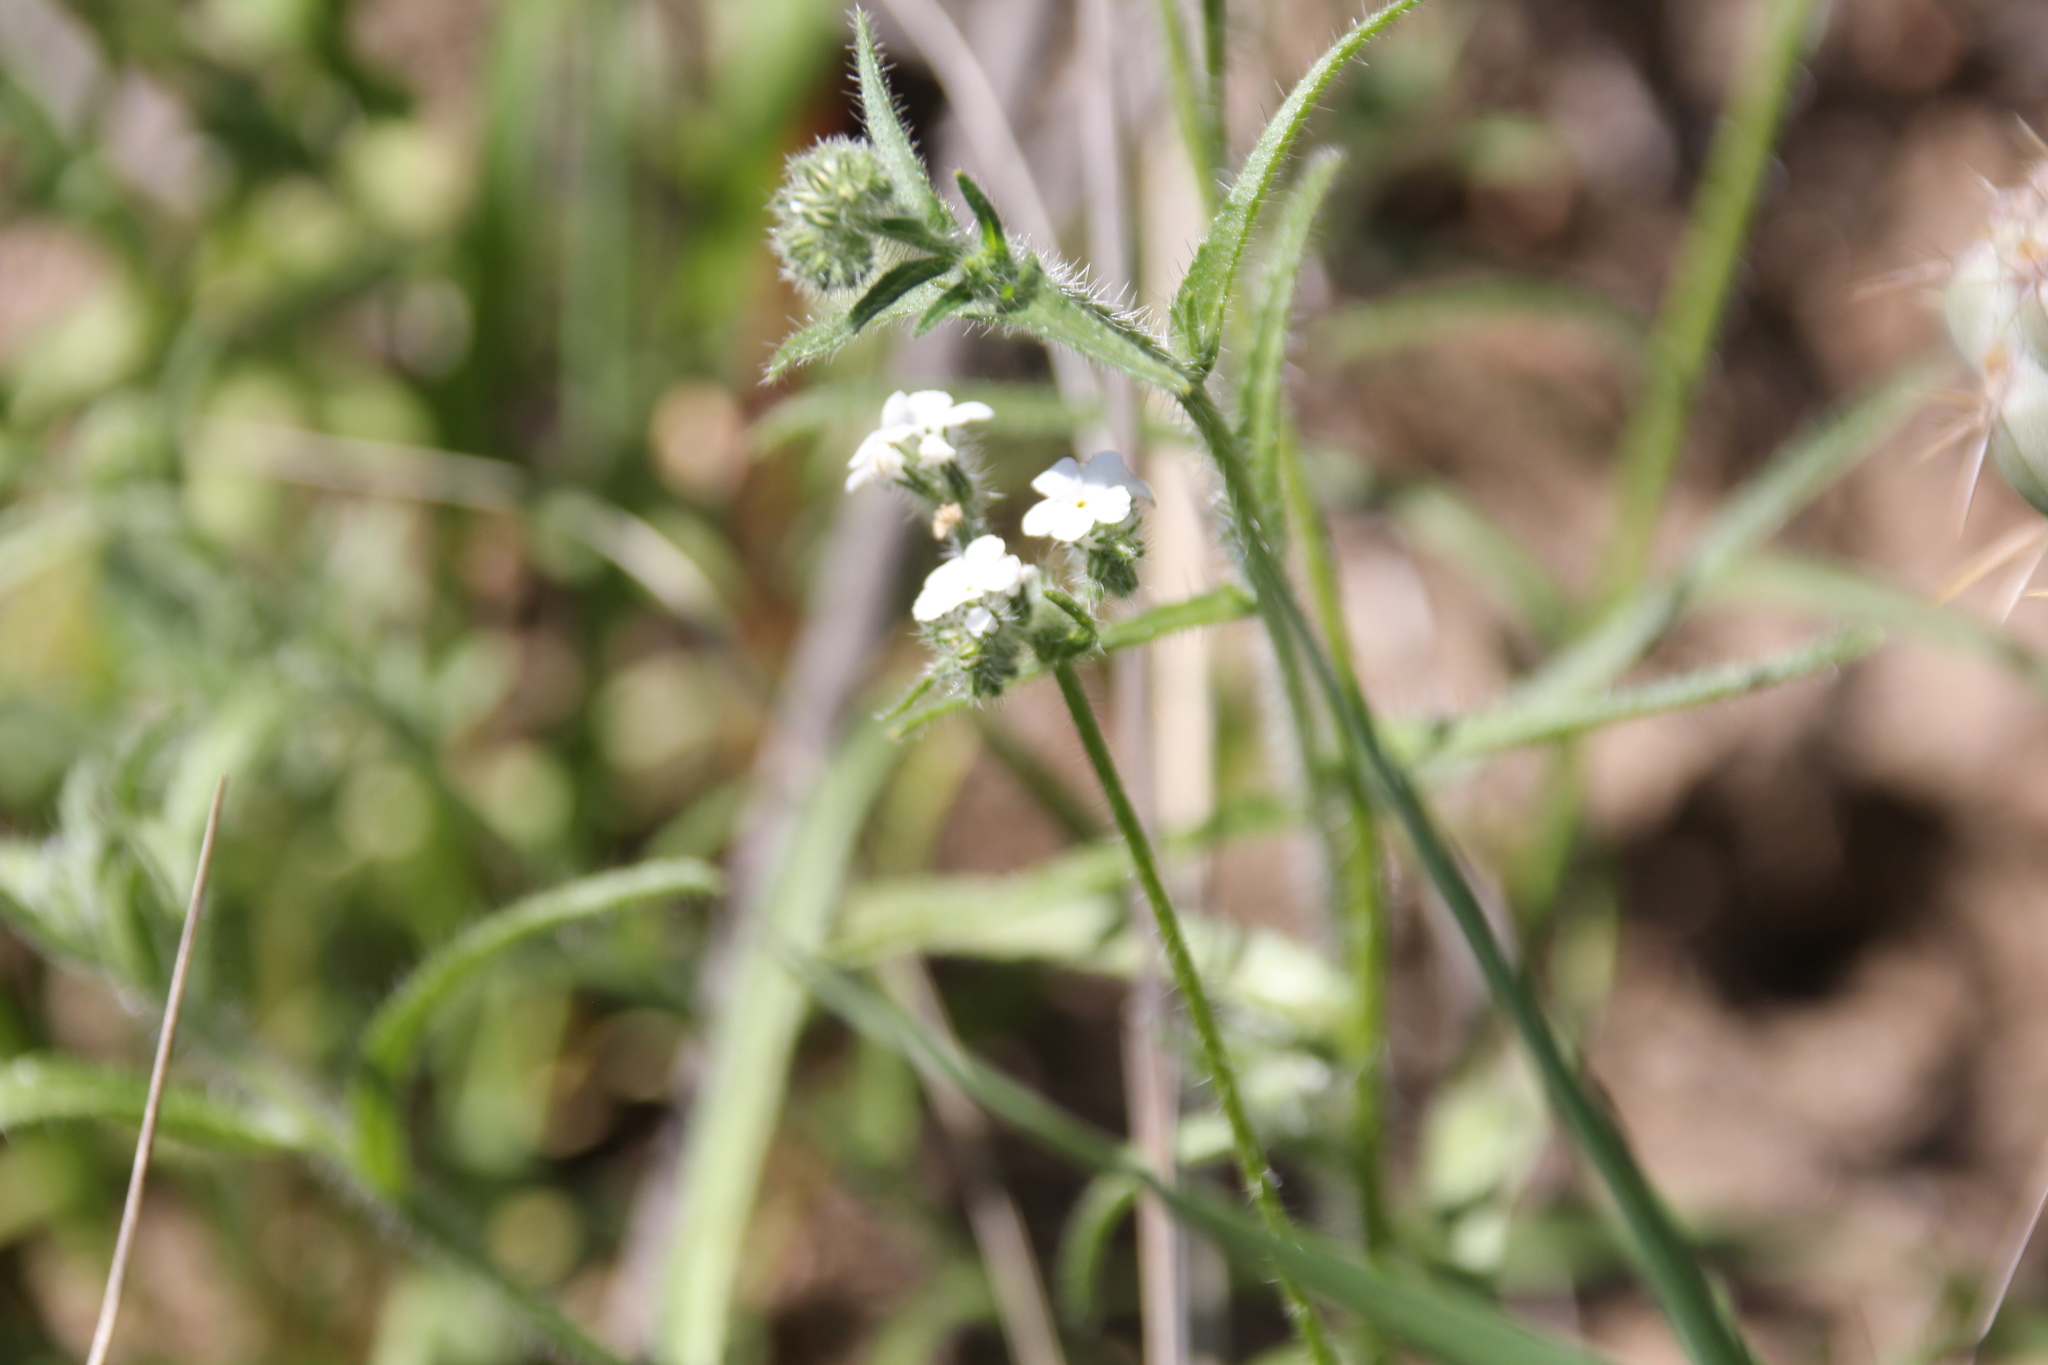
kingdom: Plantae
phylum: Tracheophyta
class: Magnoliopsida
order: Boraginales
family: Boraginaceae
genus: Cryptantha
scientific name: Cryptantha
